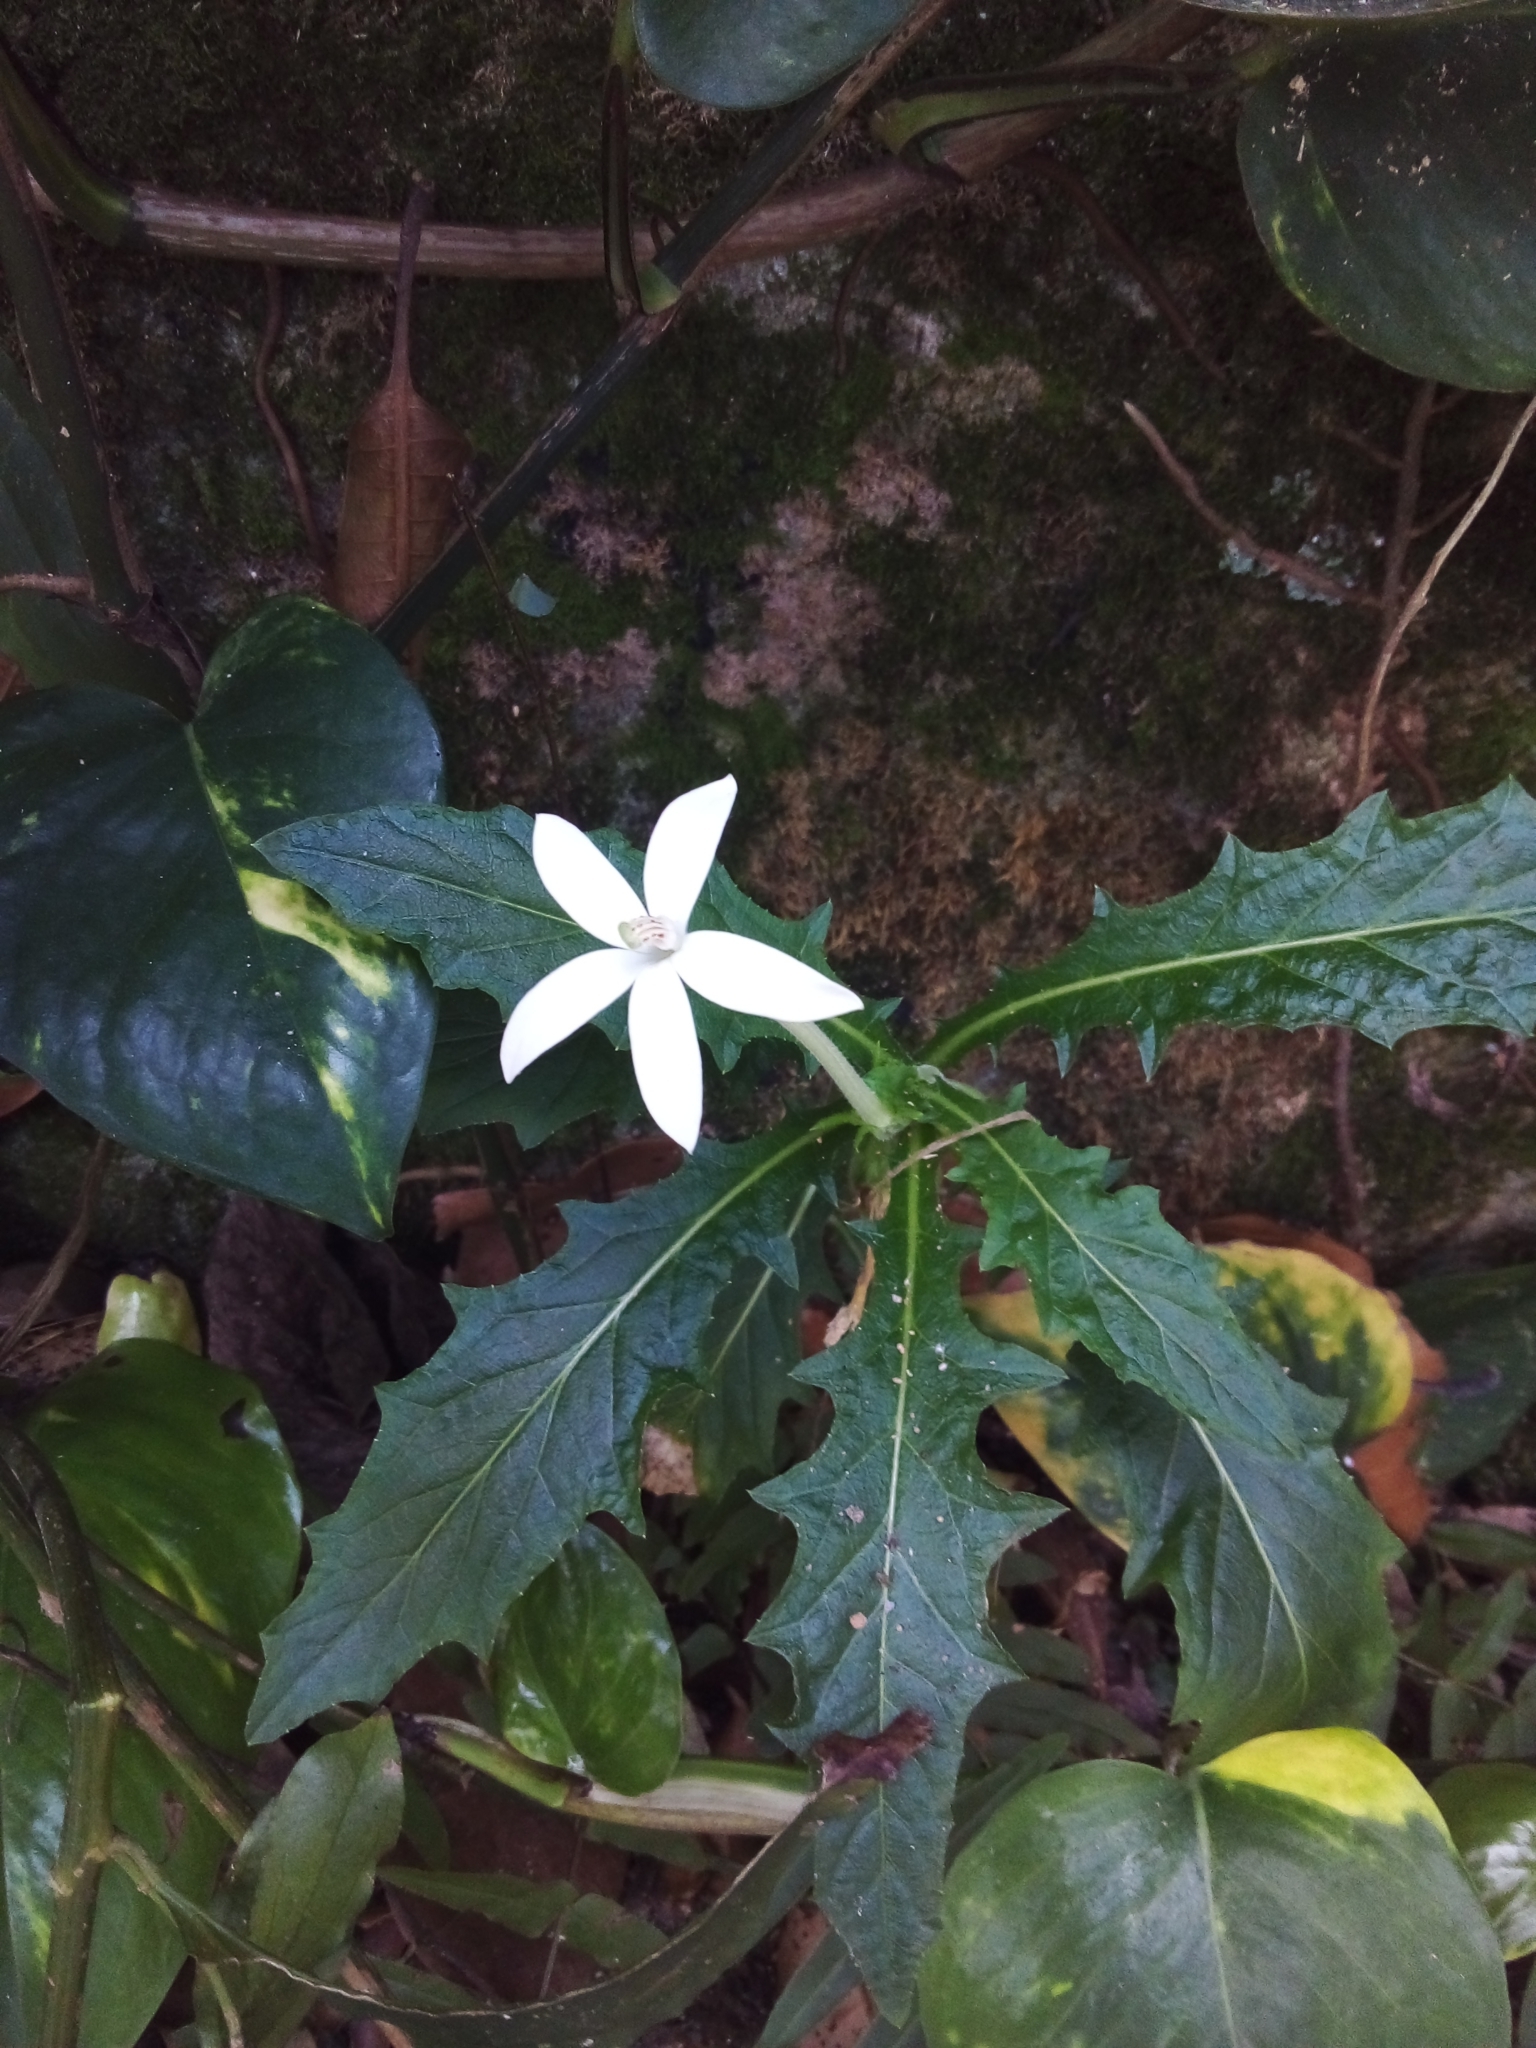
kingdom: Plantae
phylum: Tracheophyta
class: Magnoliopsida
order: Asterales
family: Campanulaceae
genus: Hippobroma
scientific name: Hippobroma longiflora
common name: Madamfate
